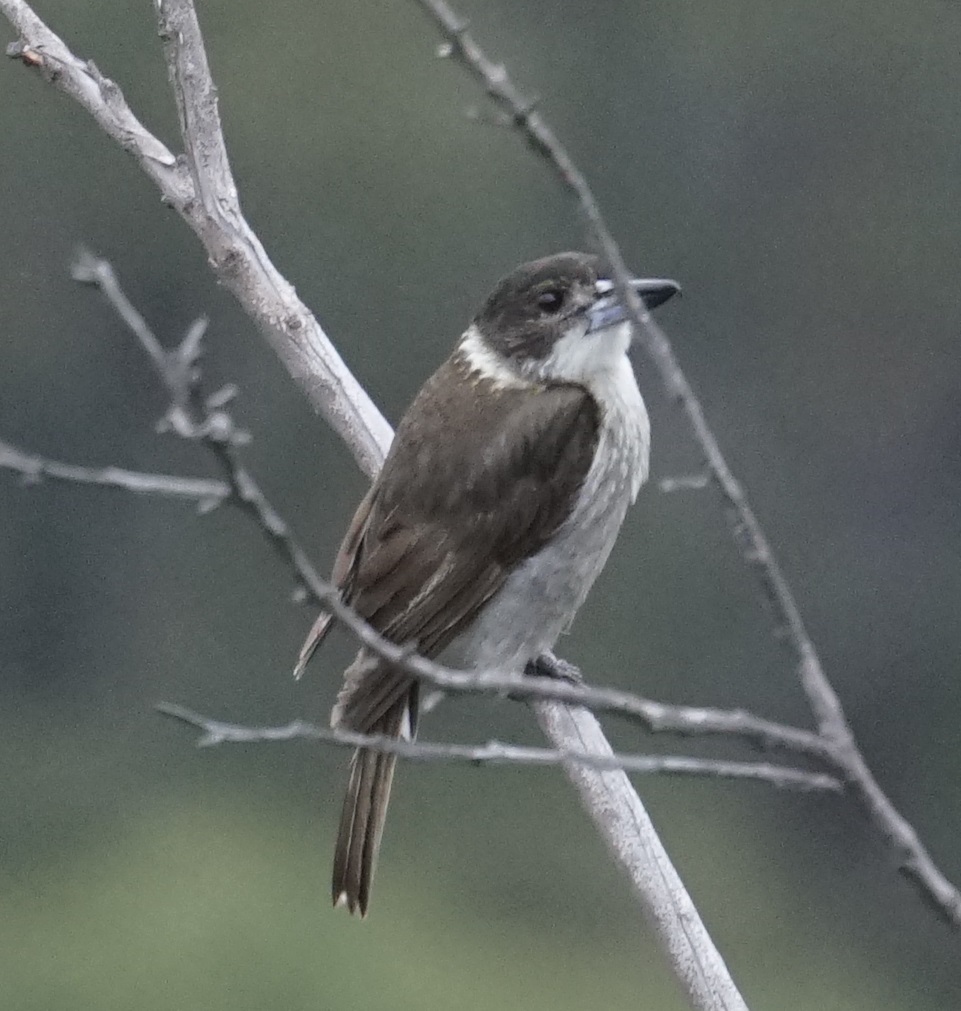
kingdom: Animalia
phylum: Chordata
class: Aves
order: Passeriformes
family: Cracticidae
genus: Cracticus
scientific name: Cracticus torquatus
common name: Grey butcherbird
